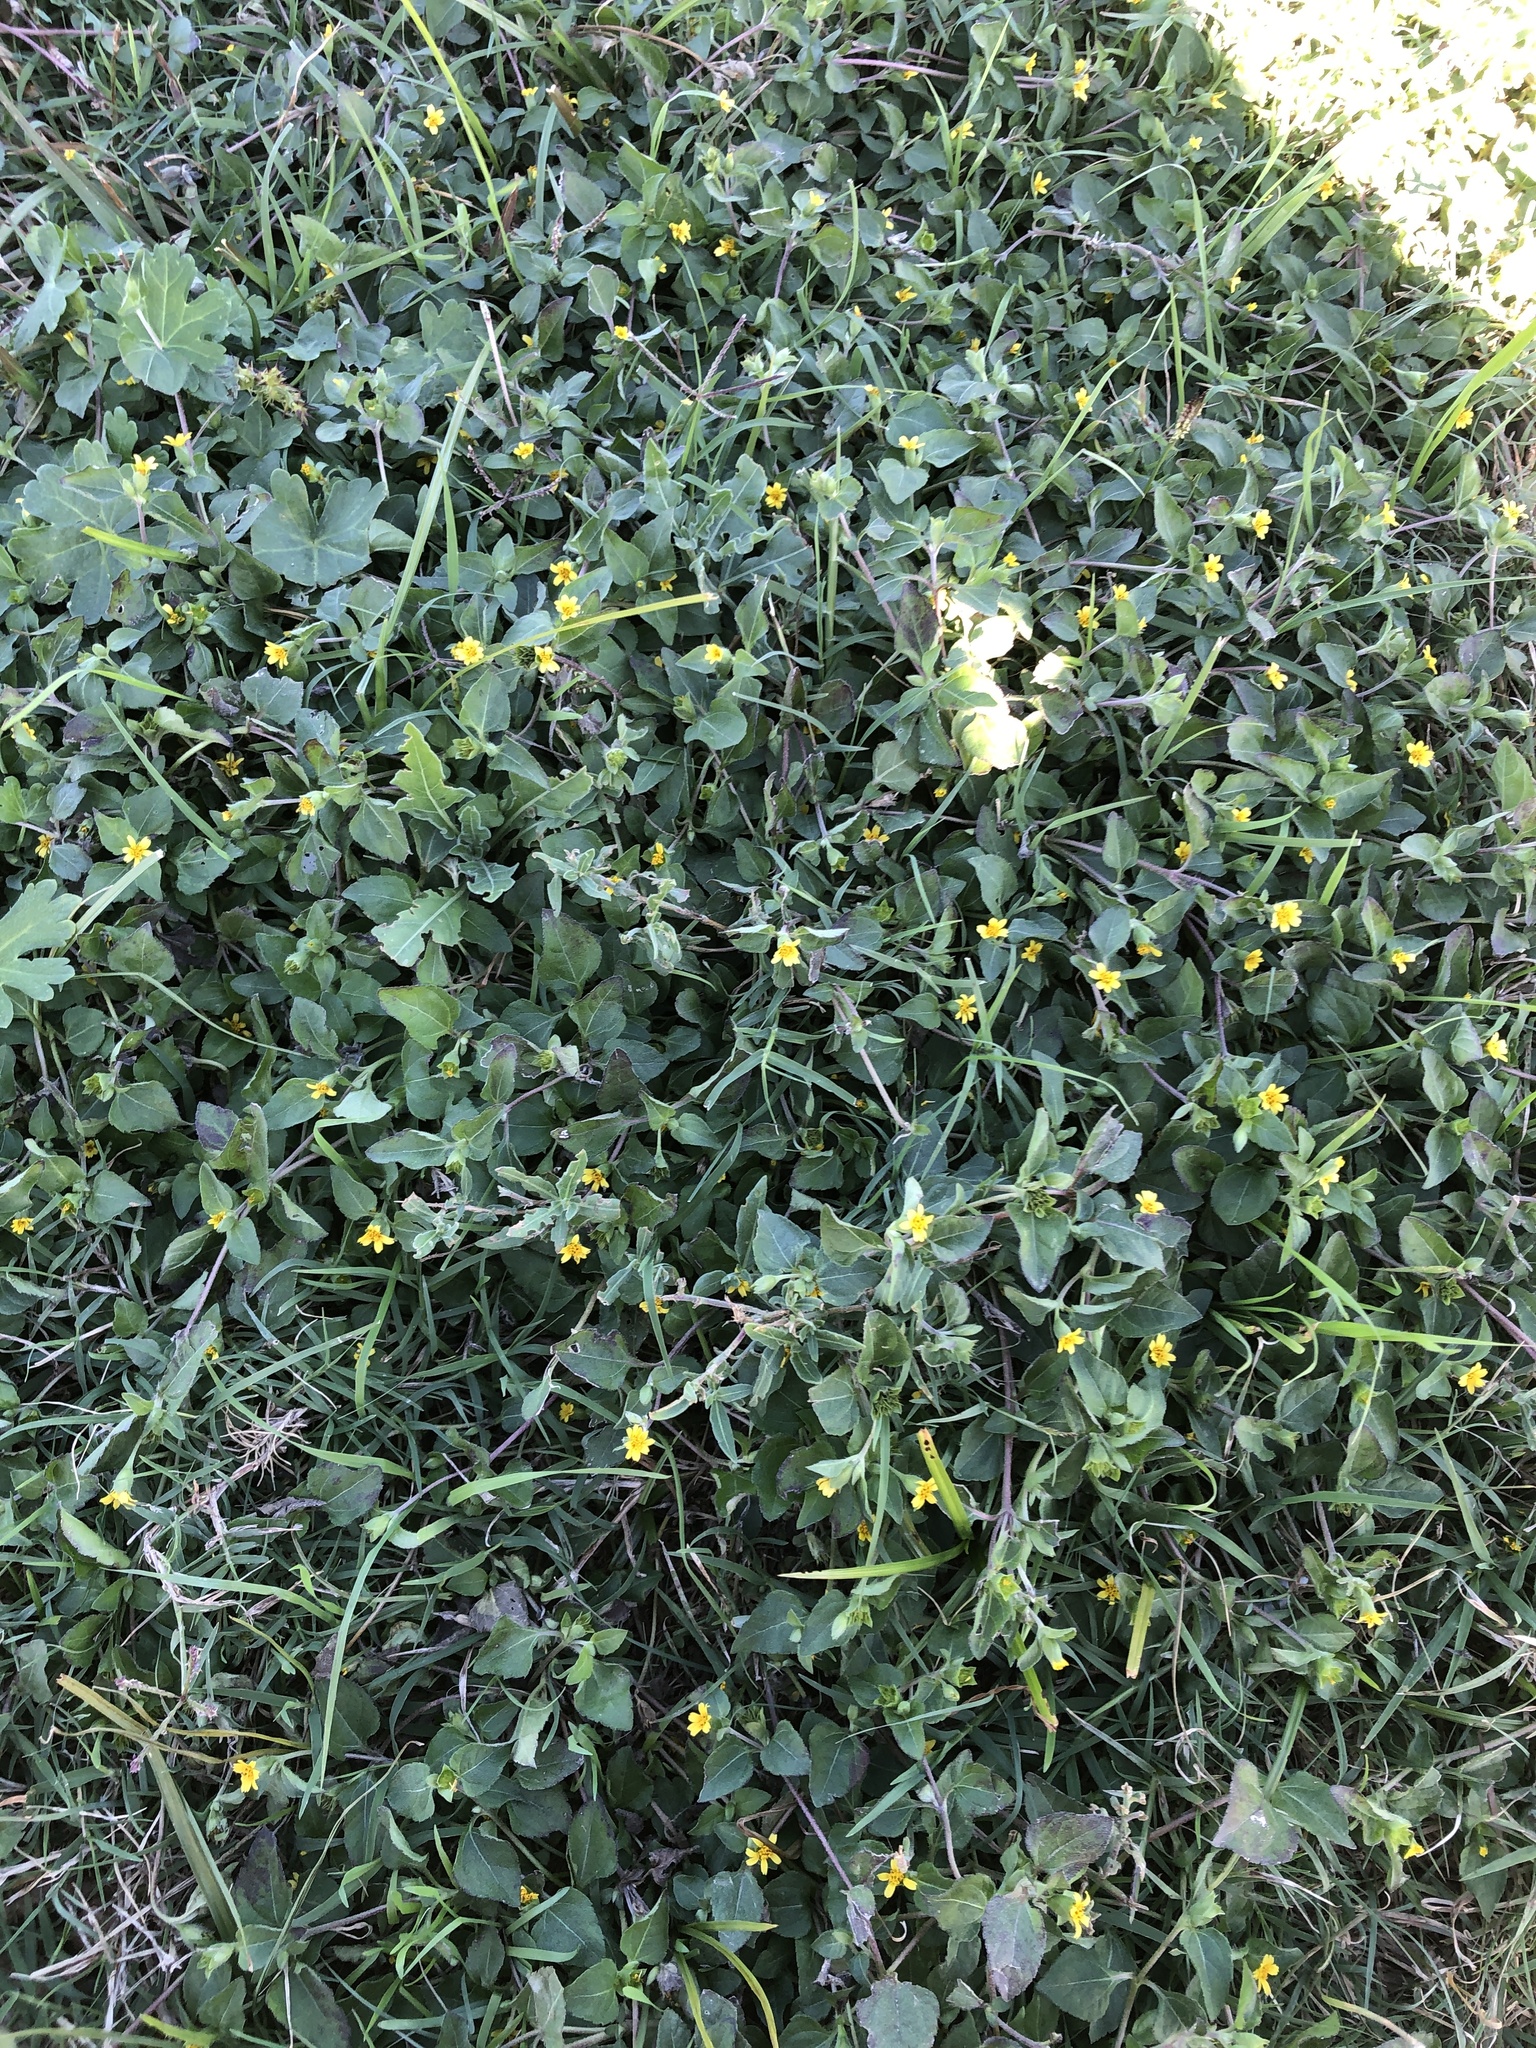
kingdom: Plantae
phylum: Tracheophyta
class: Magnoliopsida
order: Asterales
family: Asteraceae
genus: Calyptocarpus
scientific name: Calyptocarpus vialis
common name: Straggler daisy
